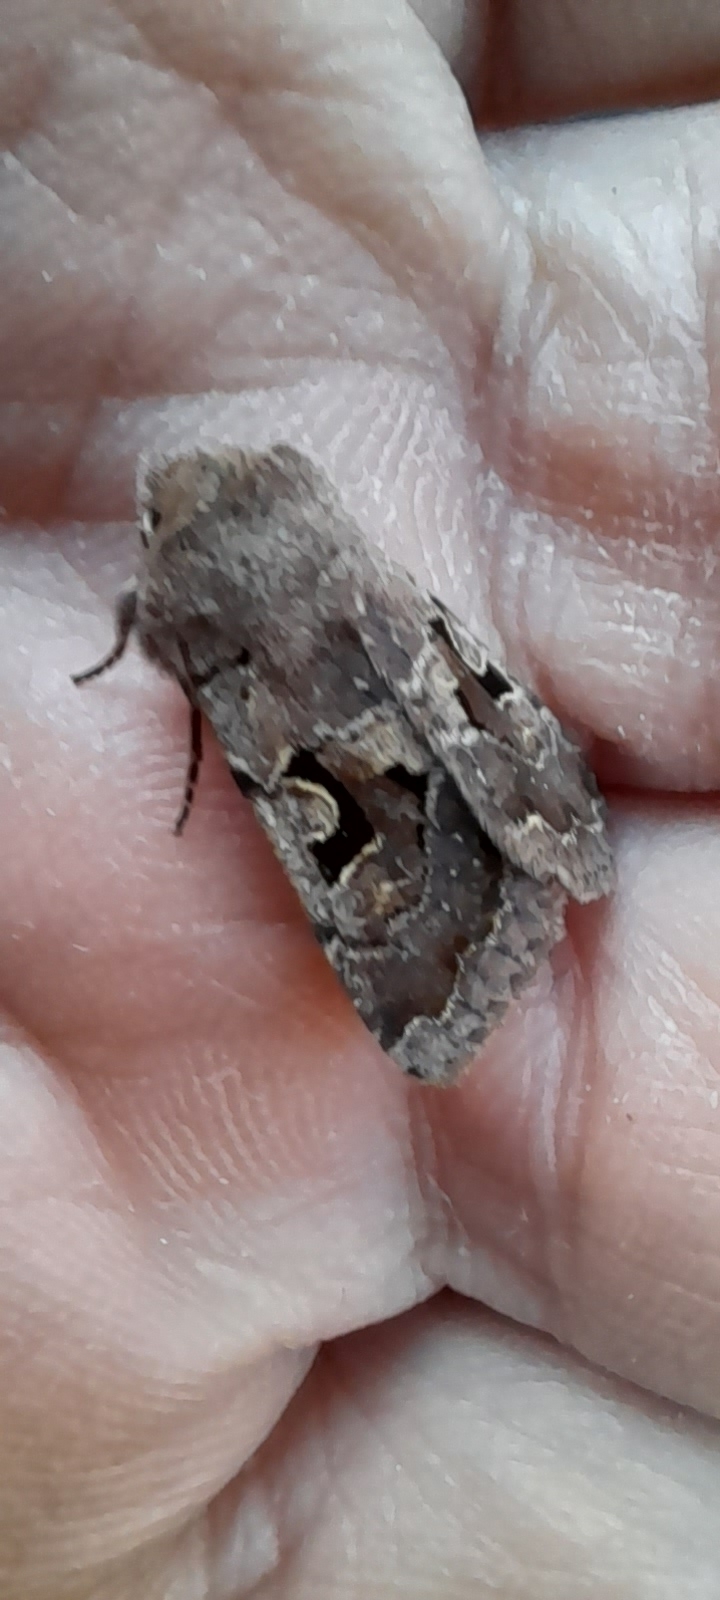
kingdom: Animalia
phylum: Arthropoda
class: Insecta
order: Lepidoptera
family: Noctuidae
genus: Orthosia
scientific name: Orthosia gothica
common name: Hebrew character
